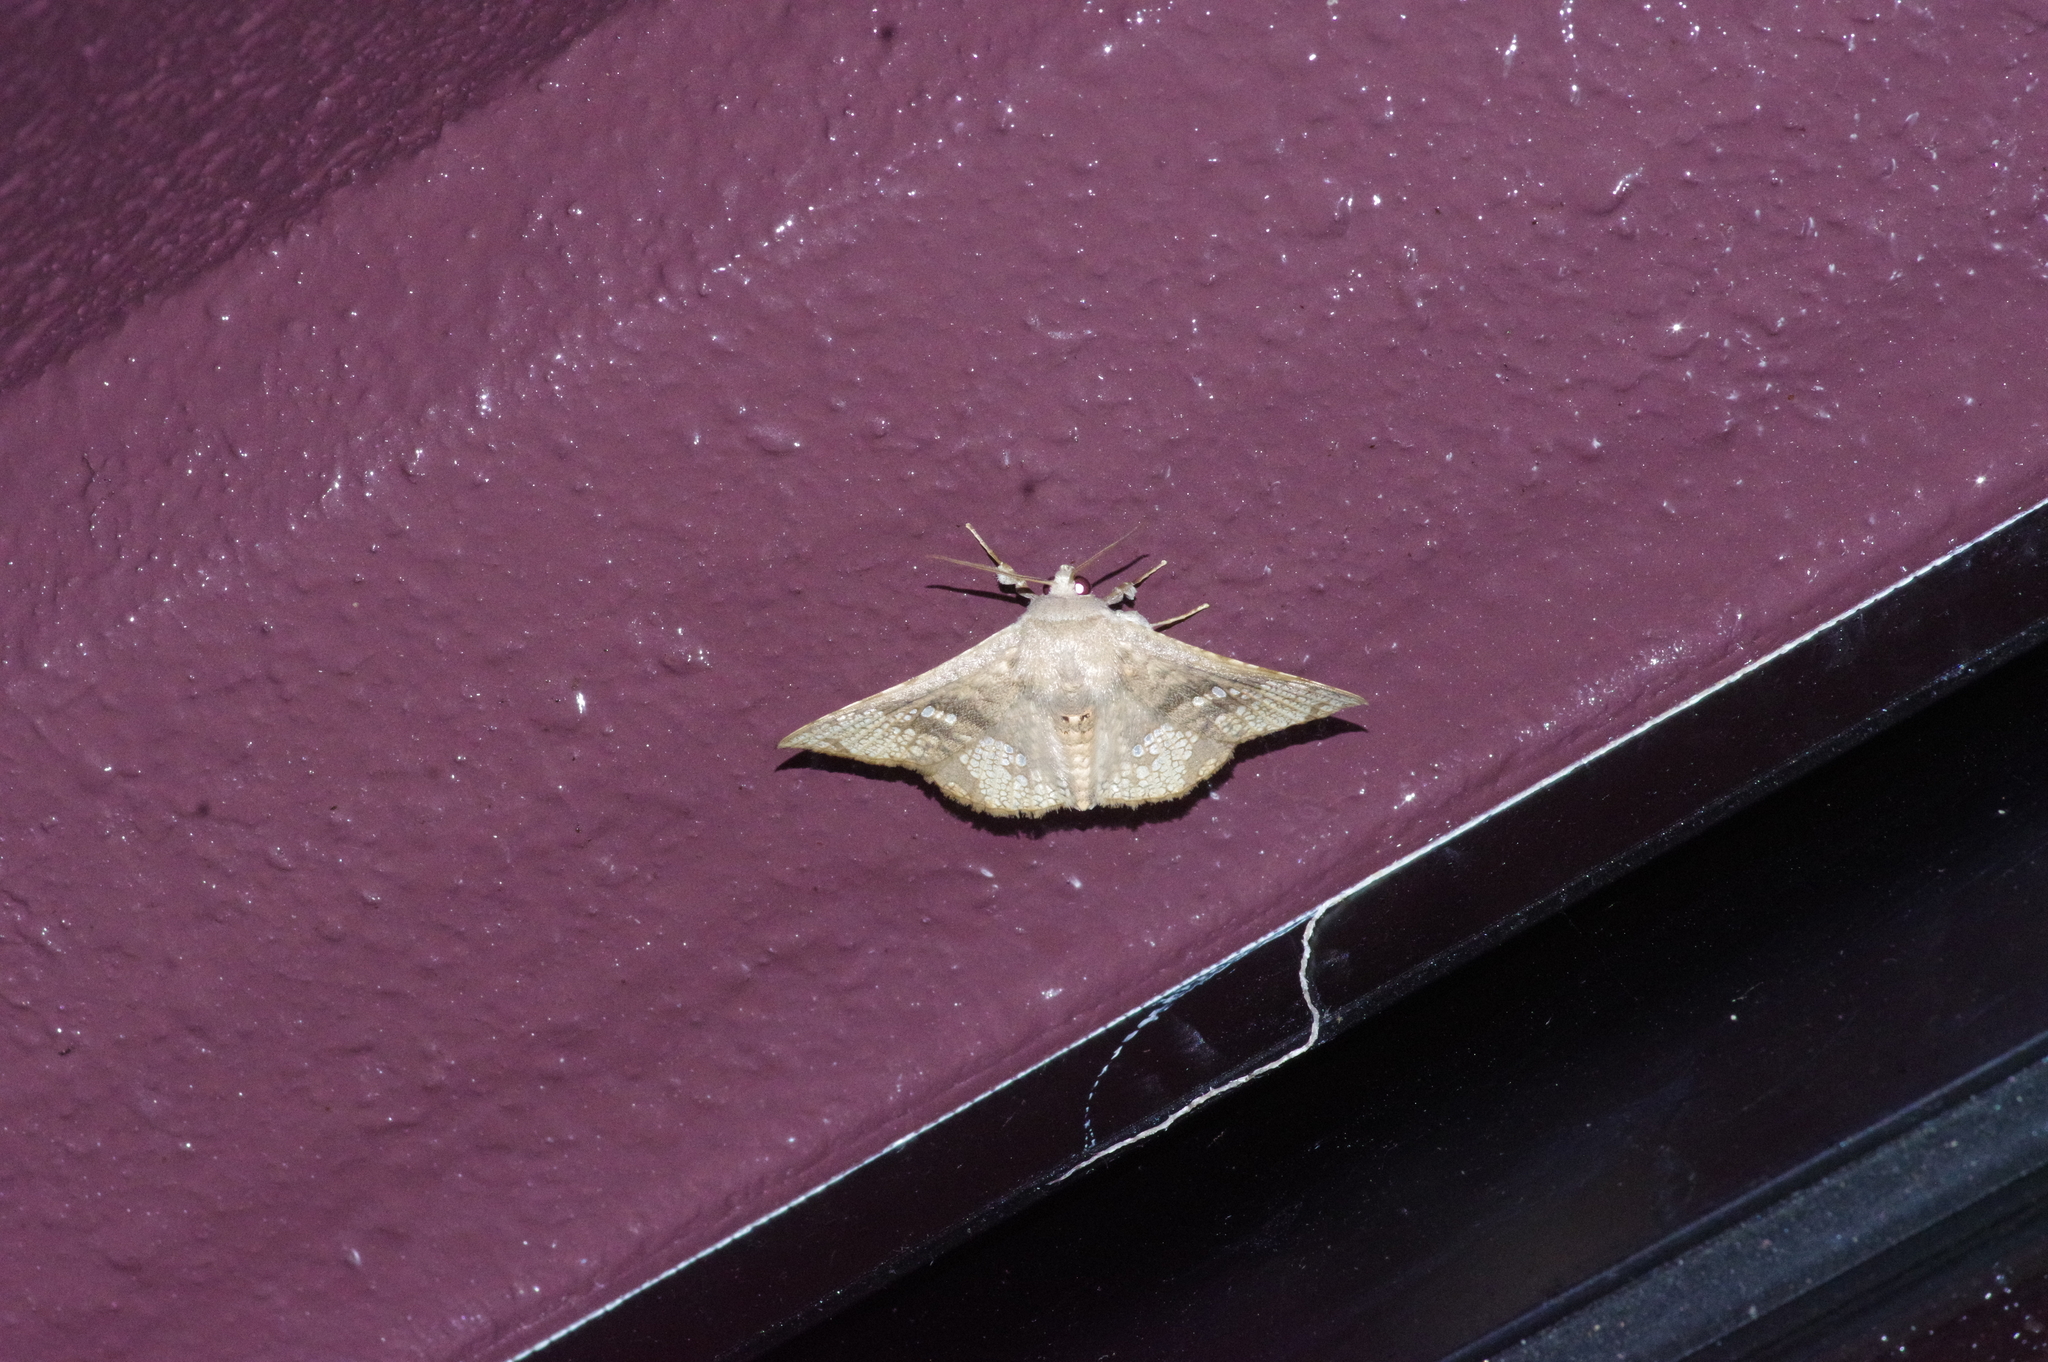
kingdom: Animalia
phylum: Arthropoda
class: Insecta
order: Lepidoptera
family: Thyrididae
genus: Canaea
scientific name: Canaea ryukyuensis
